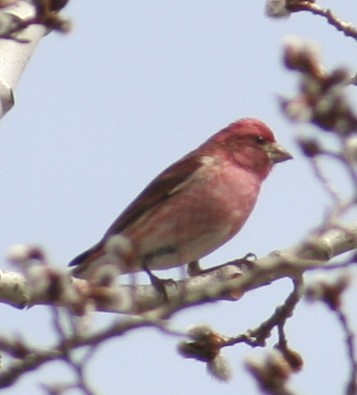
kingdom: Animalia
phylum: Chordata
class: Aves
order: Passeriformes
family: Fringillidae
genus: Haemorhous
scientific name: Haemorhous purpureus
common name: Purple finch
